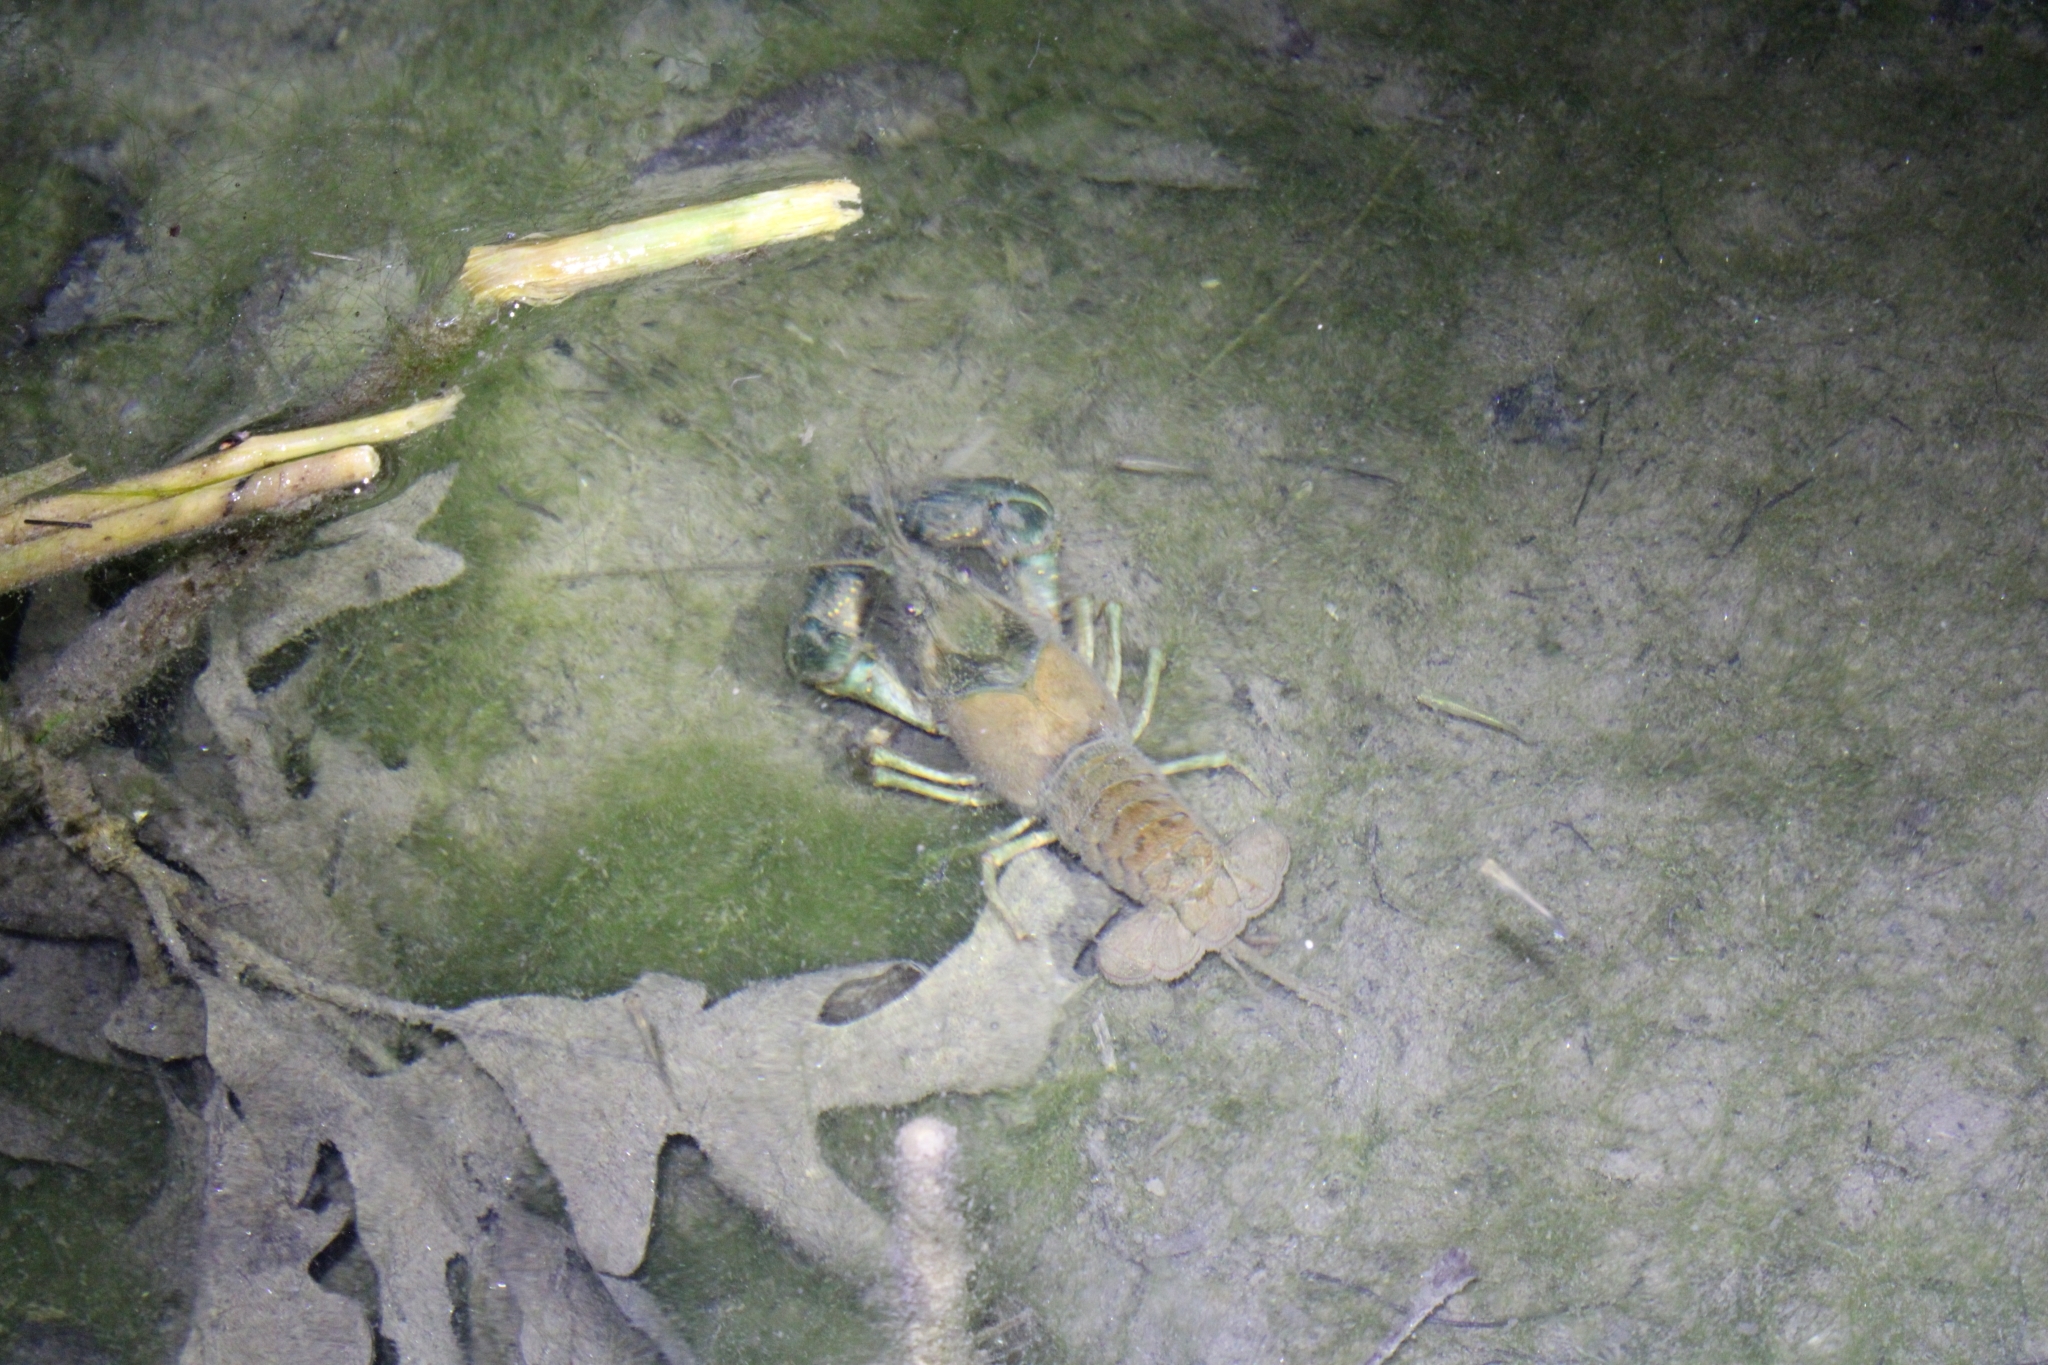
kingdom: Animalia
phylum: Arthropoda
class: Malacostraca
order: Decapoda
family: Cambaridae
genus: Faxonius
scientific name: Faxonius virilis
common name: Virile crayfish
